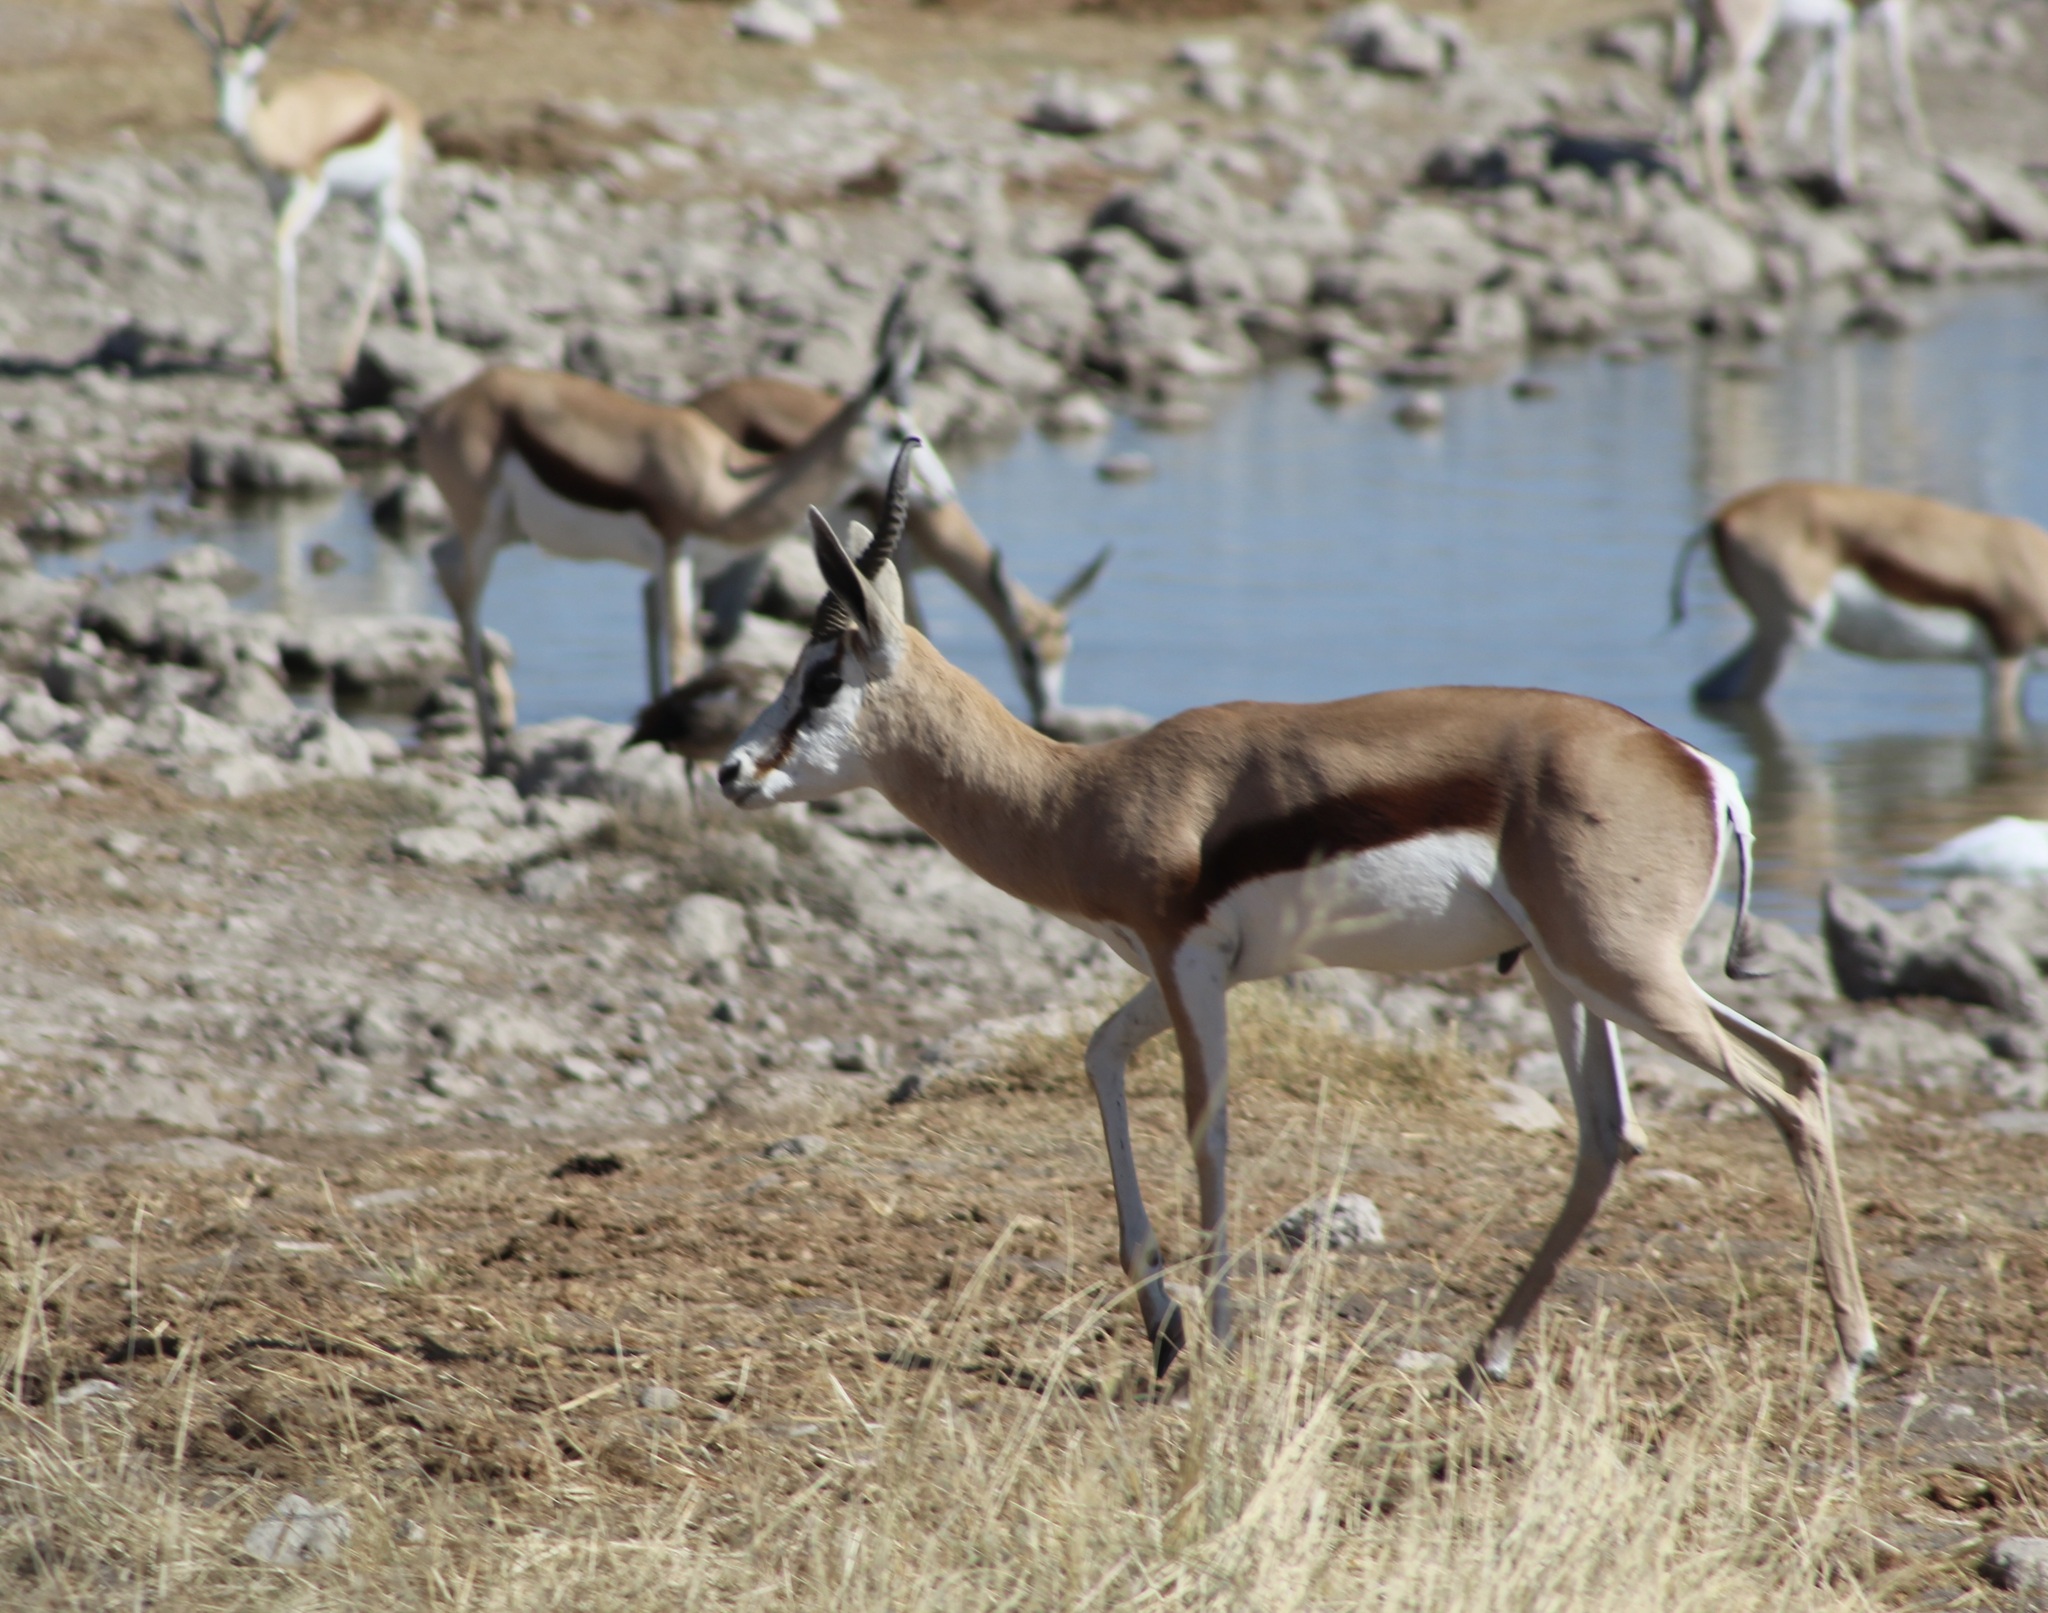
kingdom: Animalia
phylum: Chordata
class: Mammalia
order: Artiodactyla
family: Bovidae
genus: Antidorcas
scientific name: Antidorcas marsupialis
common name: Springbok
